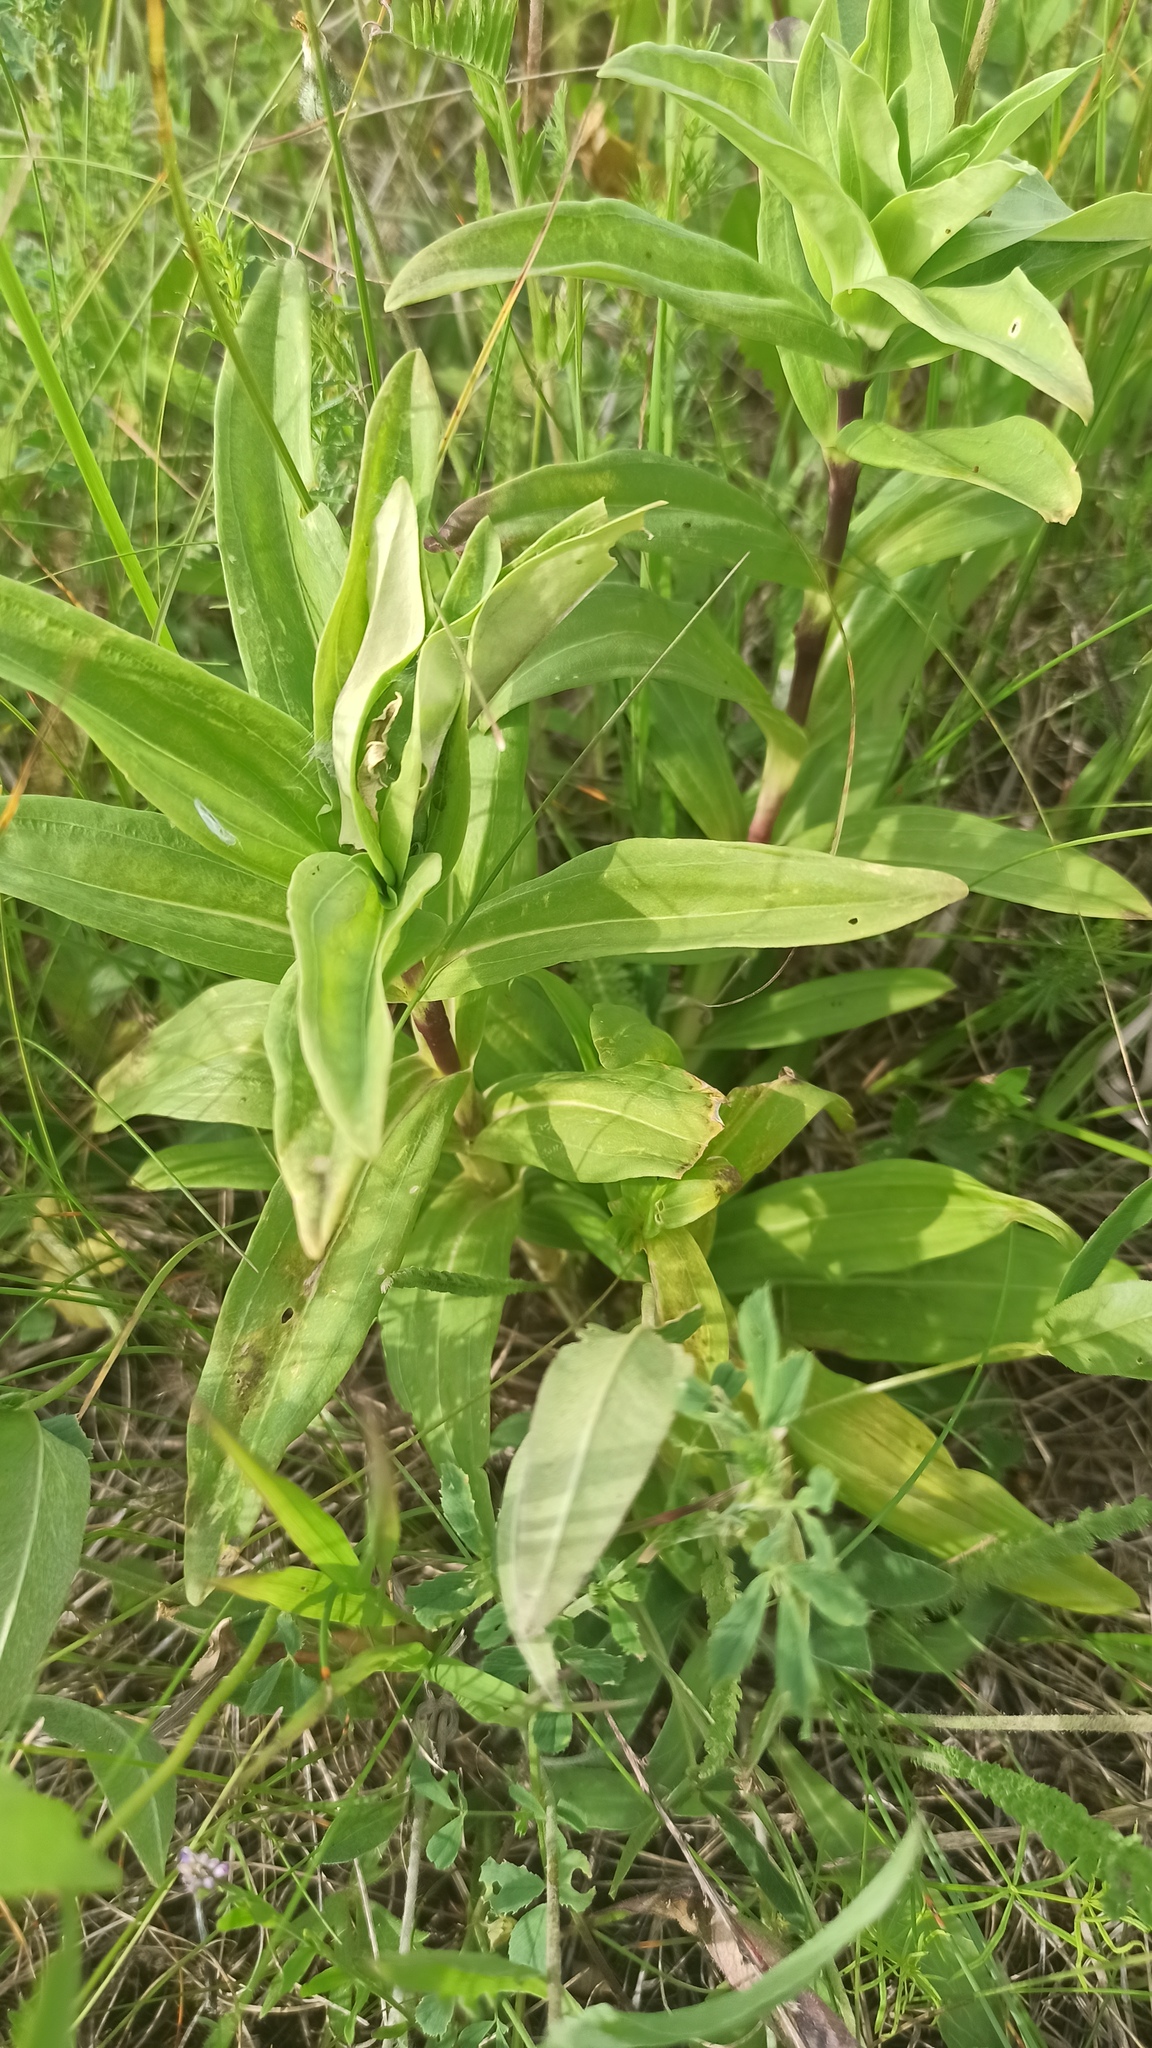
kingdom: Plantae
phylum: Tracheophyta
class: Magnoliopsida
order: Gentianales
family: Gentianaceae
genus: Gentiana
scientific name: Gentiana cruciata
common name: Cross gentian
